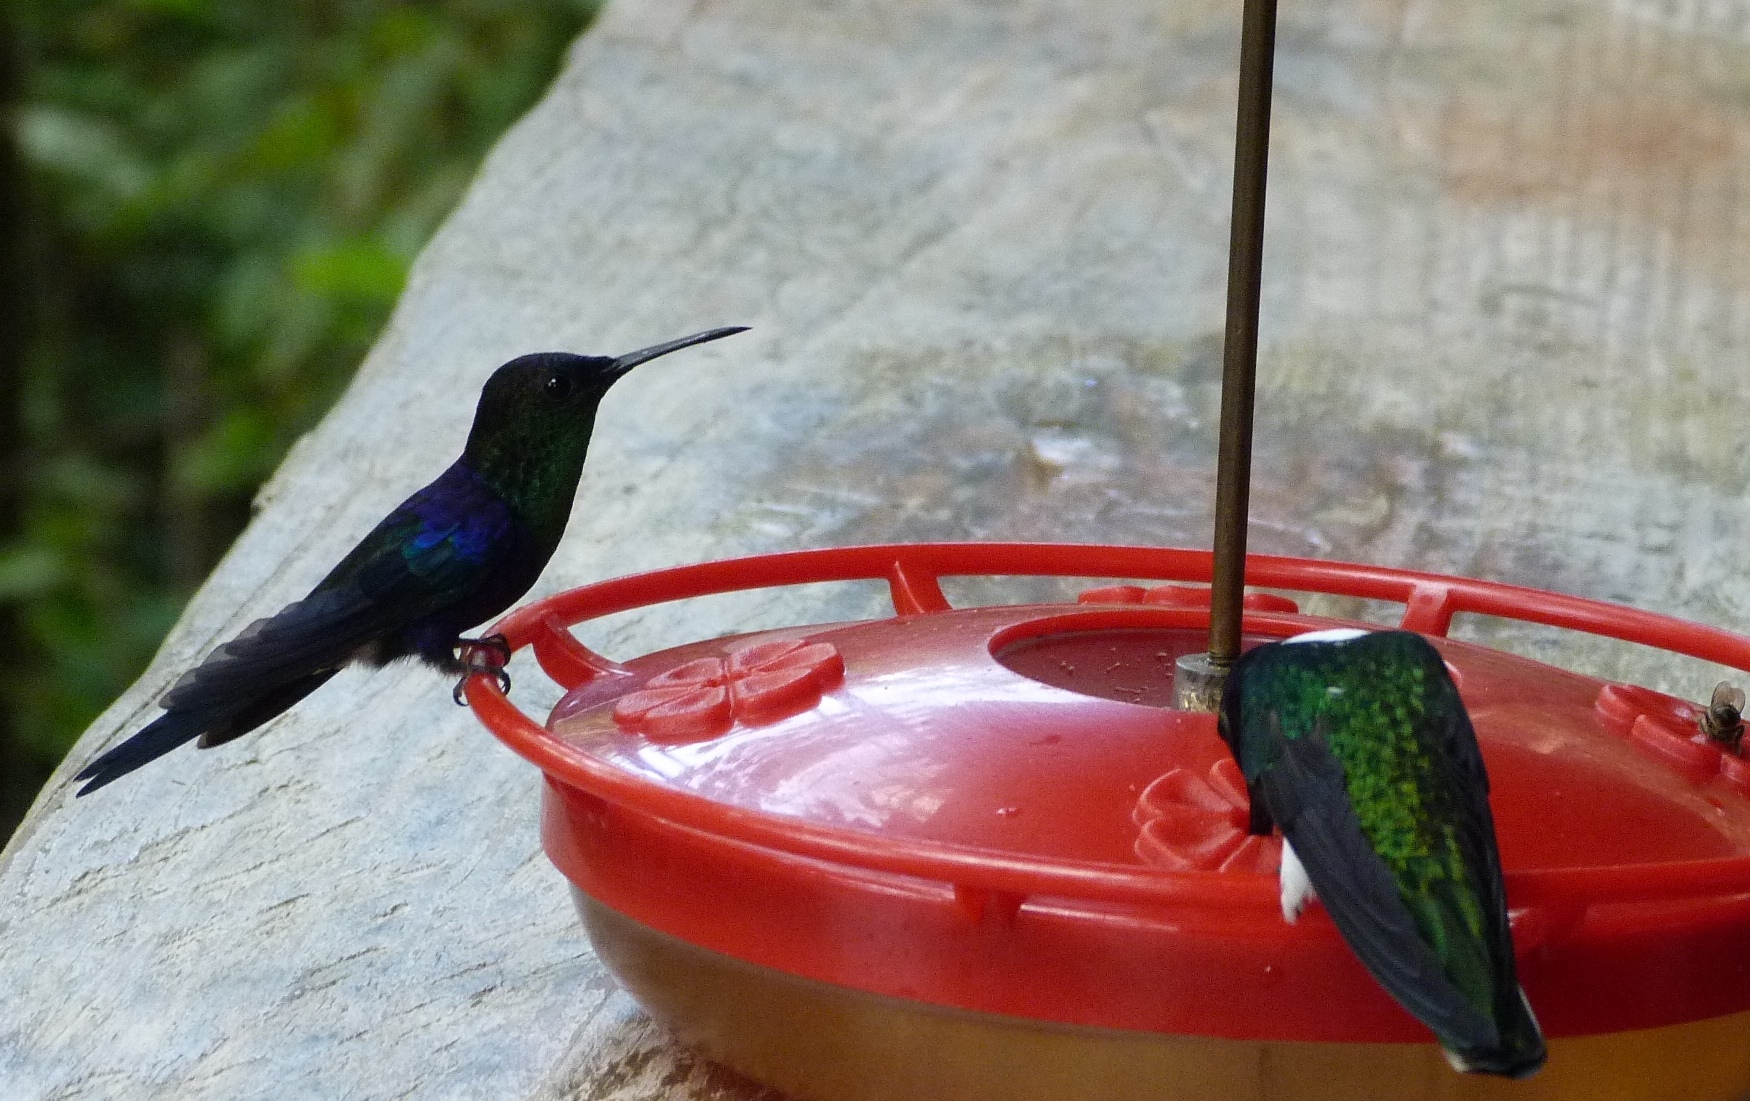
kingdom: Animalia
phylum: Chordata
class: Aves
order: Apodiformes
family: Trochilidae
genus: Thalurania
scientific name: Thalurania colombica
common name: Crowned woodnymph
